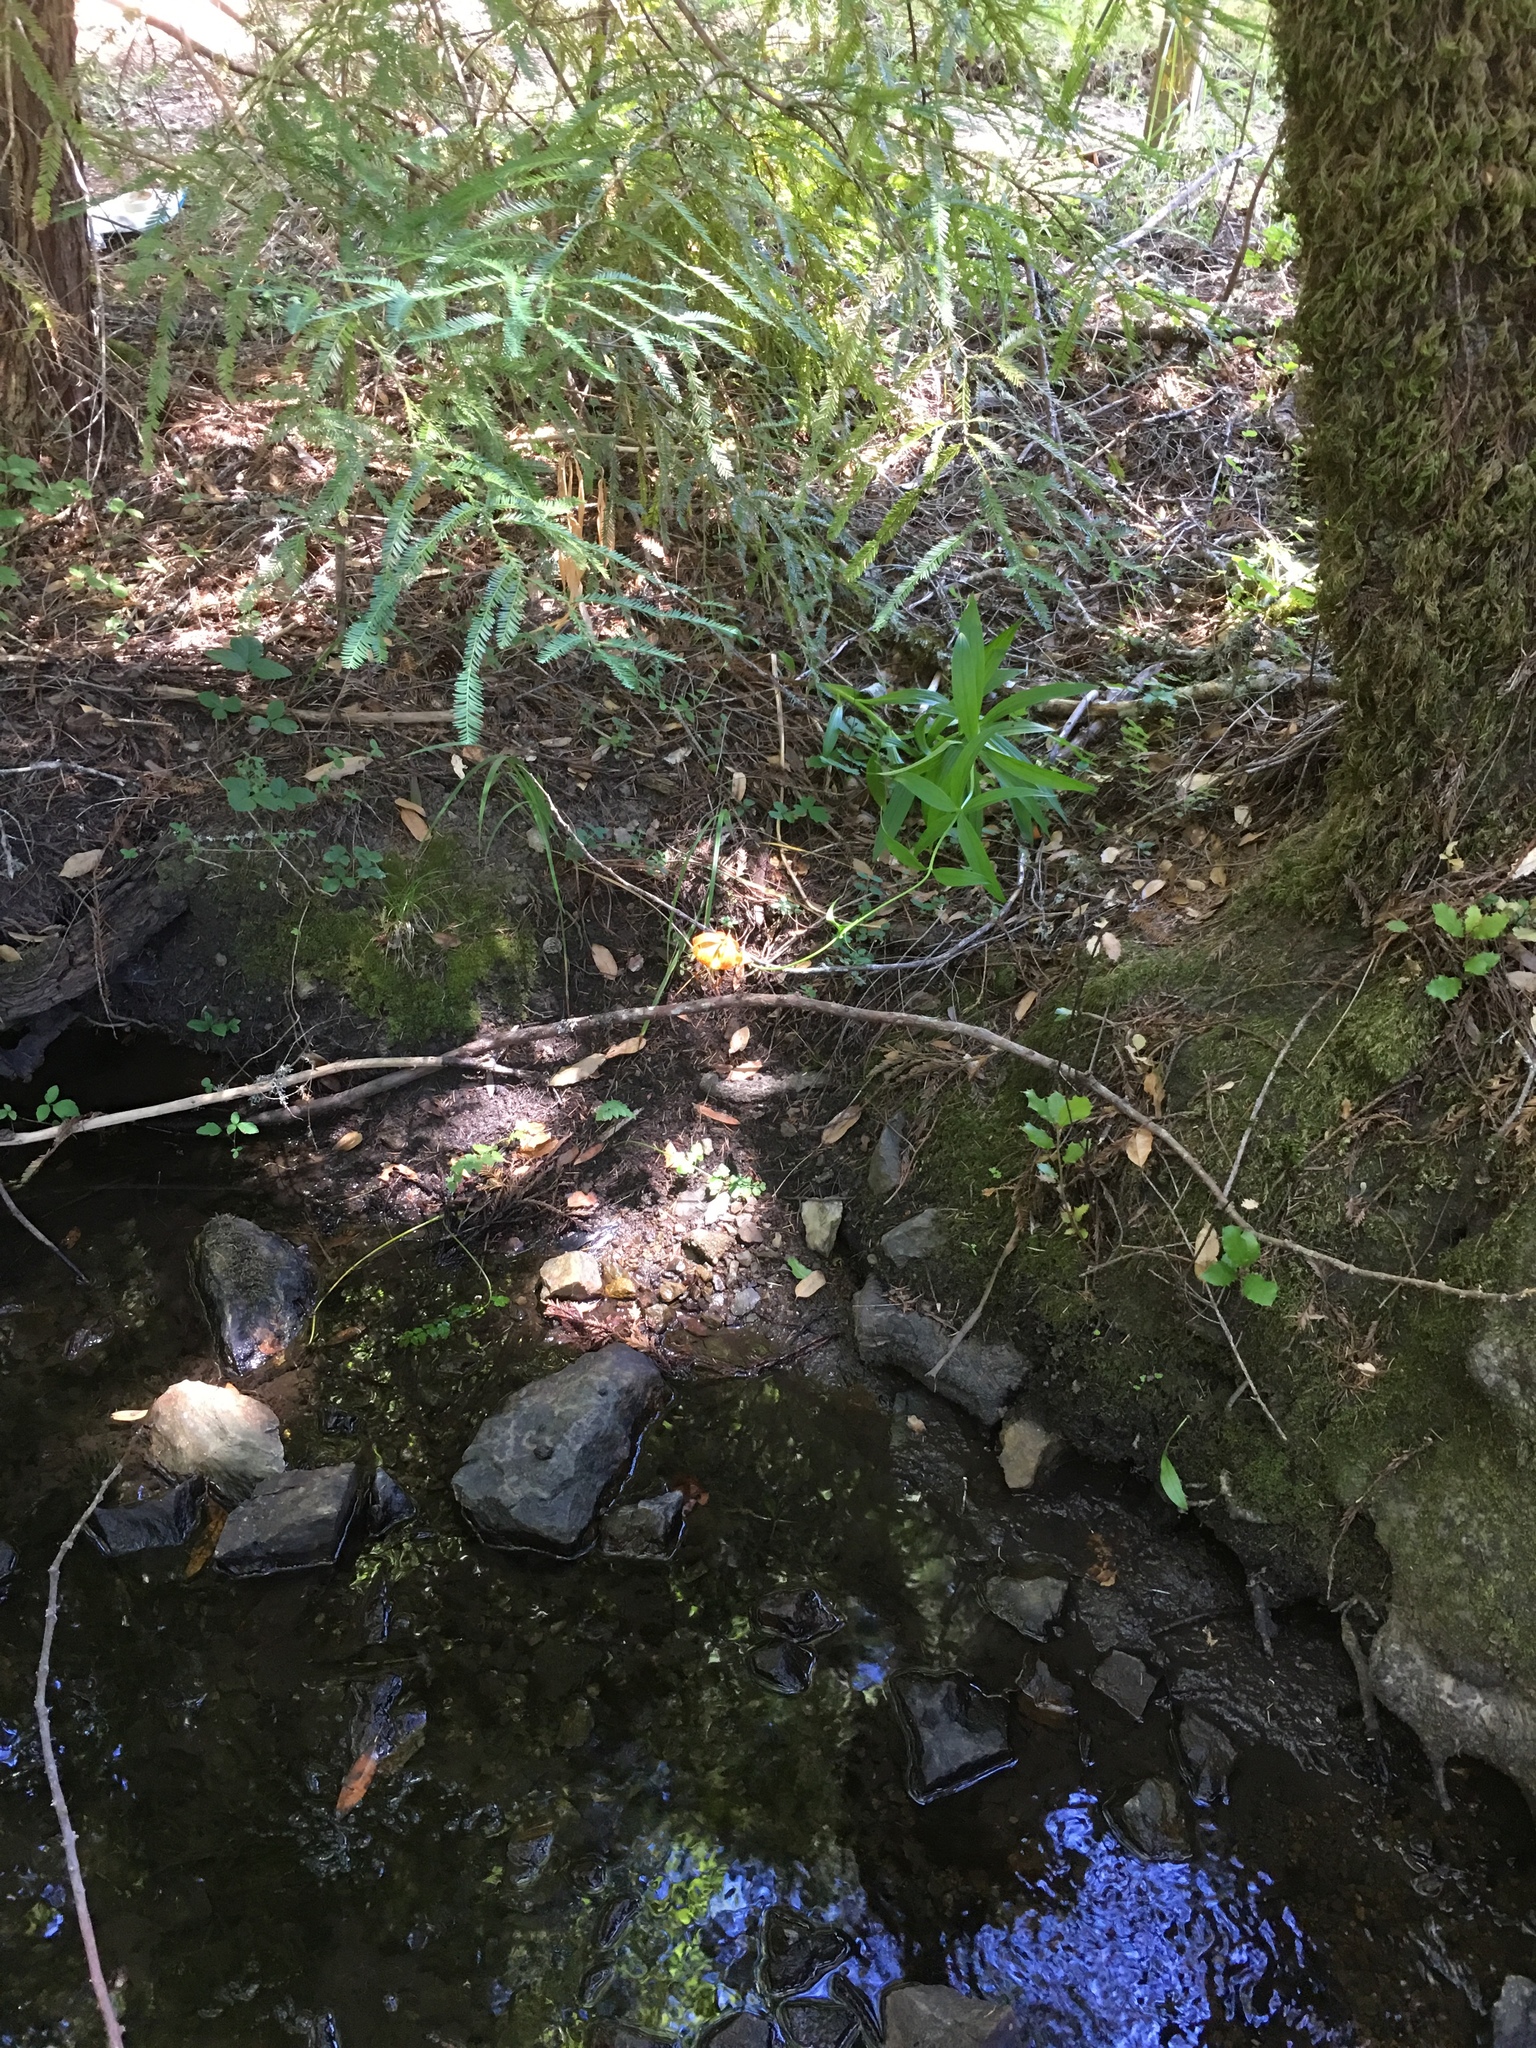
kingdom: Plantae
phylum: Tracheophyta
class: Liliopsida
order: Liliales
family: Liliaceae
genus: Lilium
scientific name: Lilium pardalinum
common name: Panther lily
